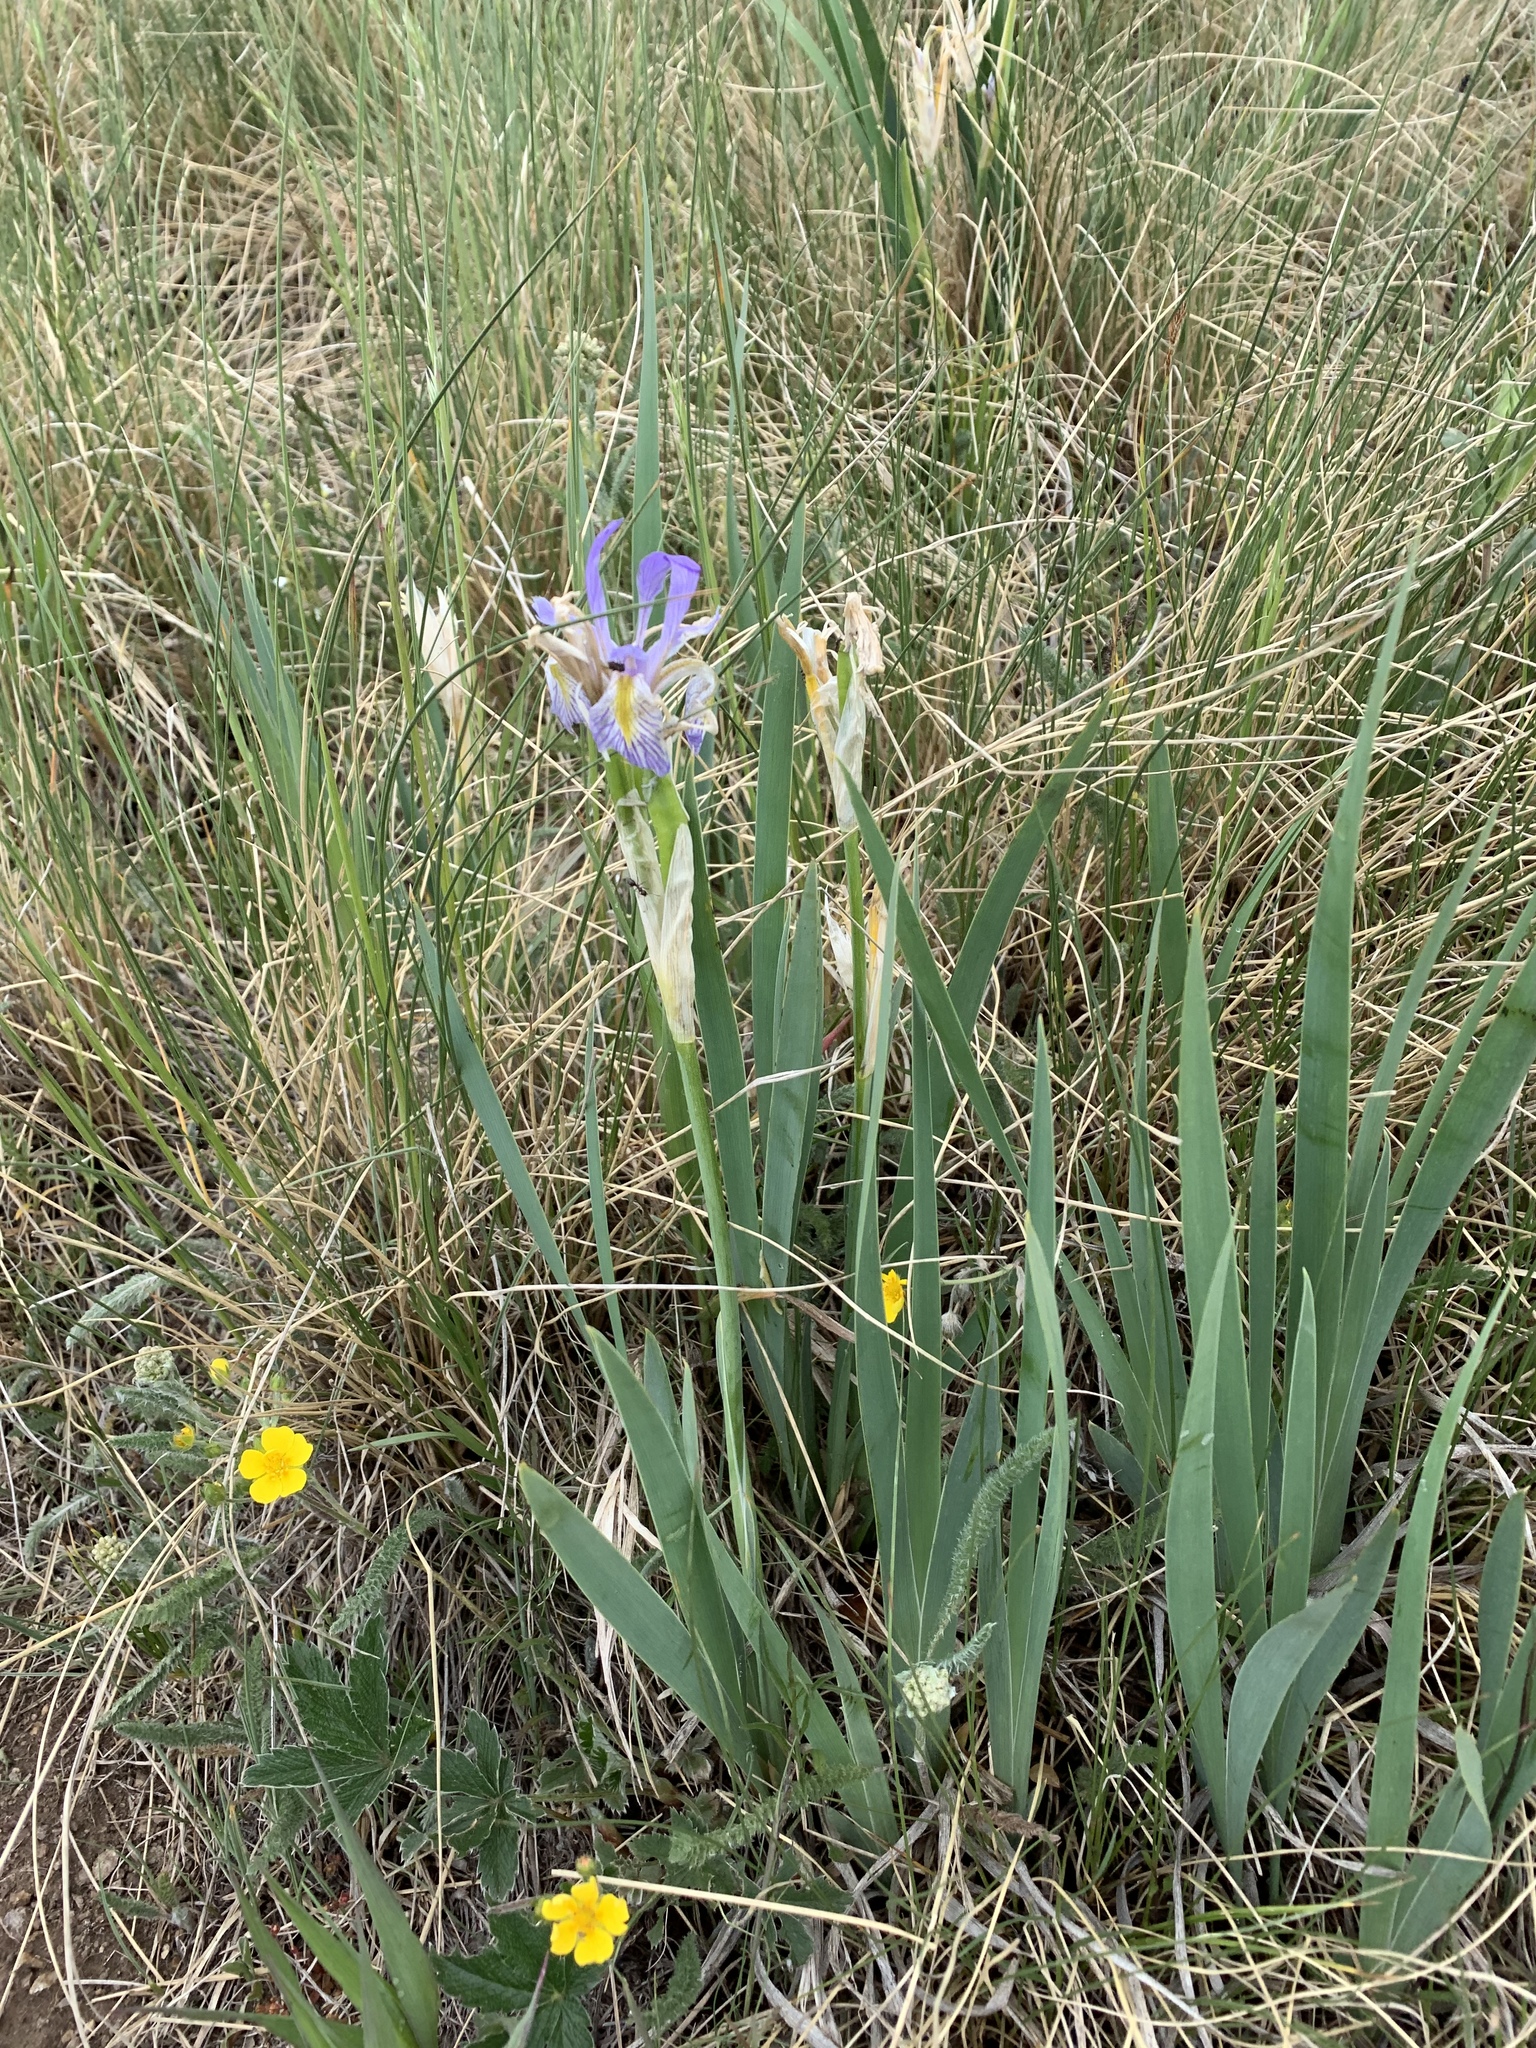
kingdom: Plantae
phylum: Tracheophyta
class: Liliopsida
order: Asparagales
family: Iridaceae
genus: Iris
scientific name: Iris missouriensis
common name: Rocky mountain iris
